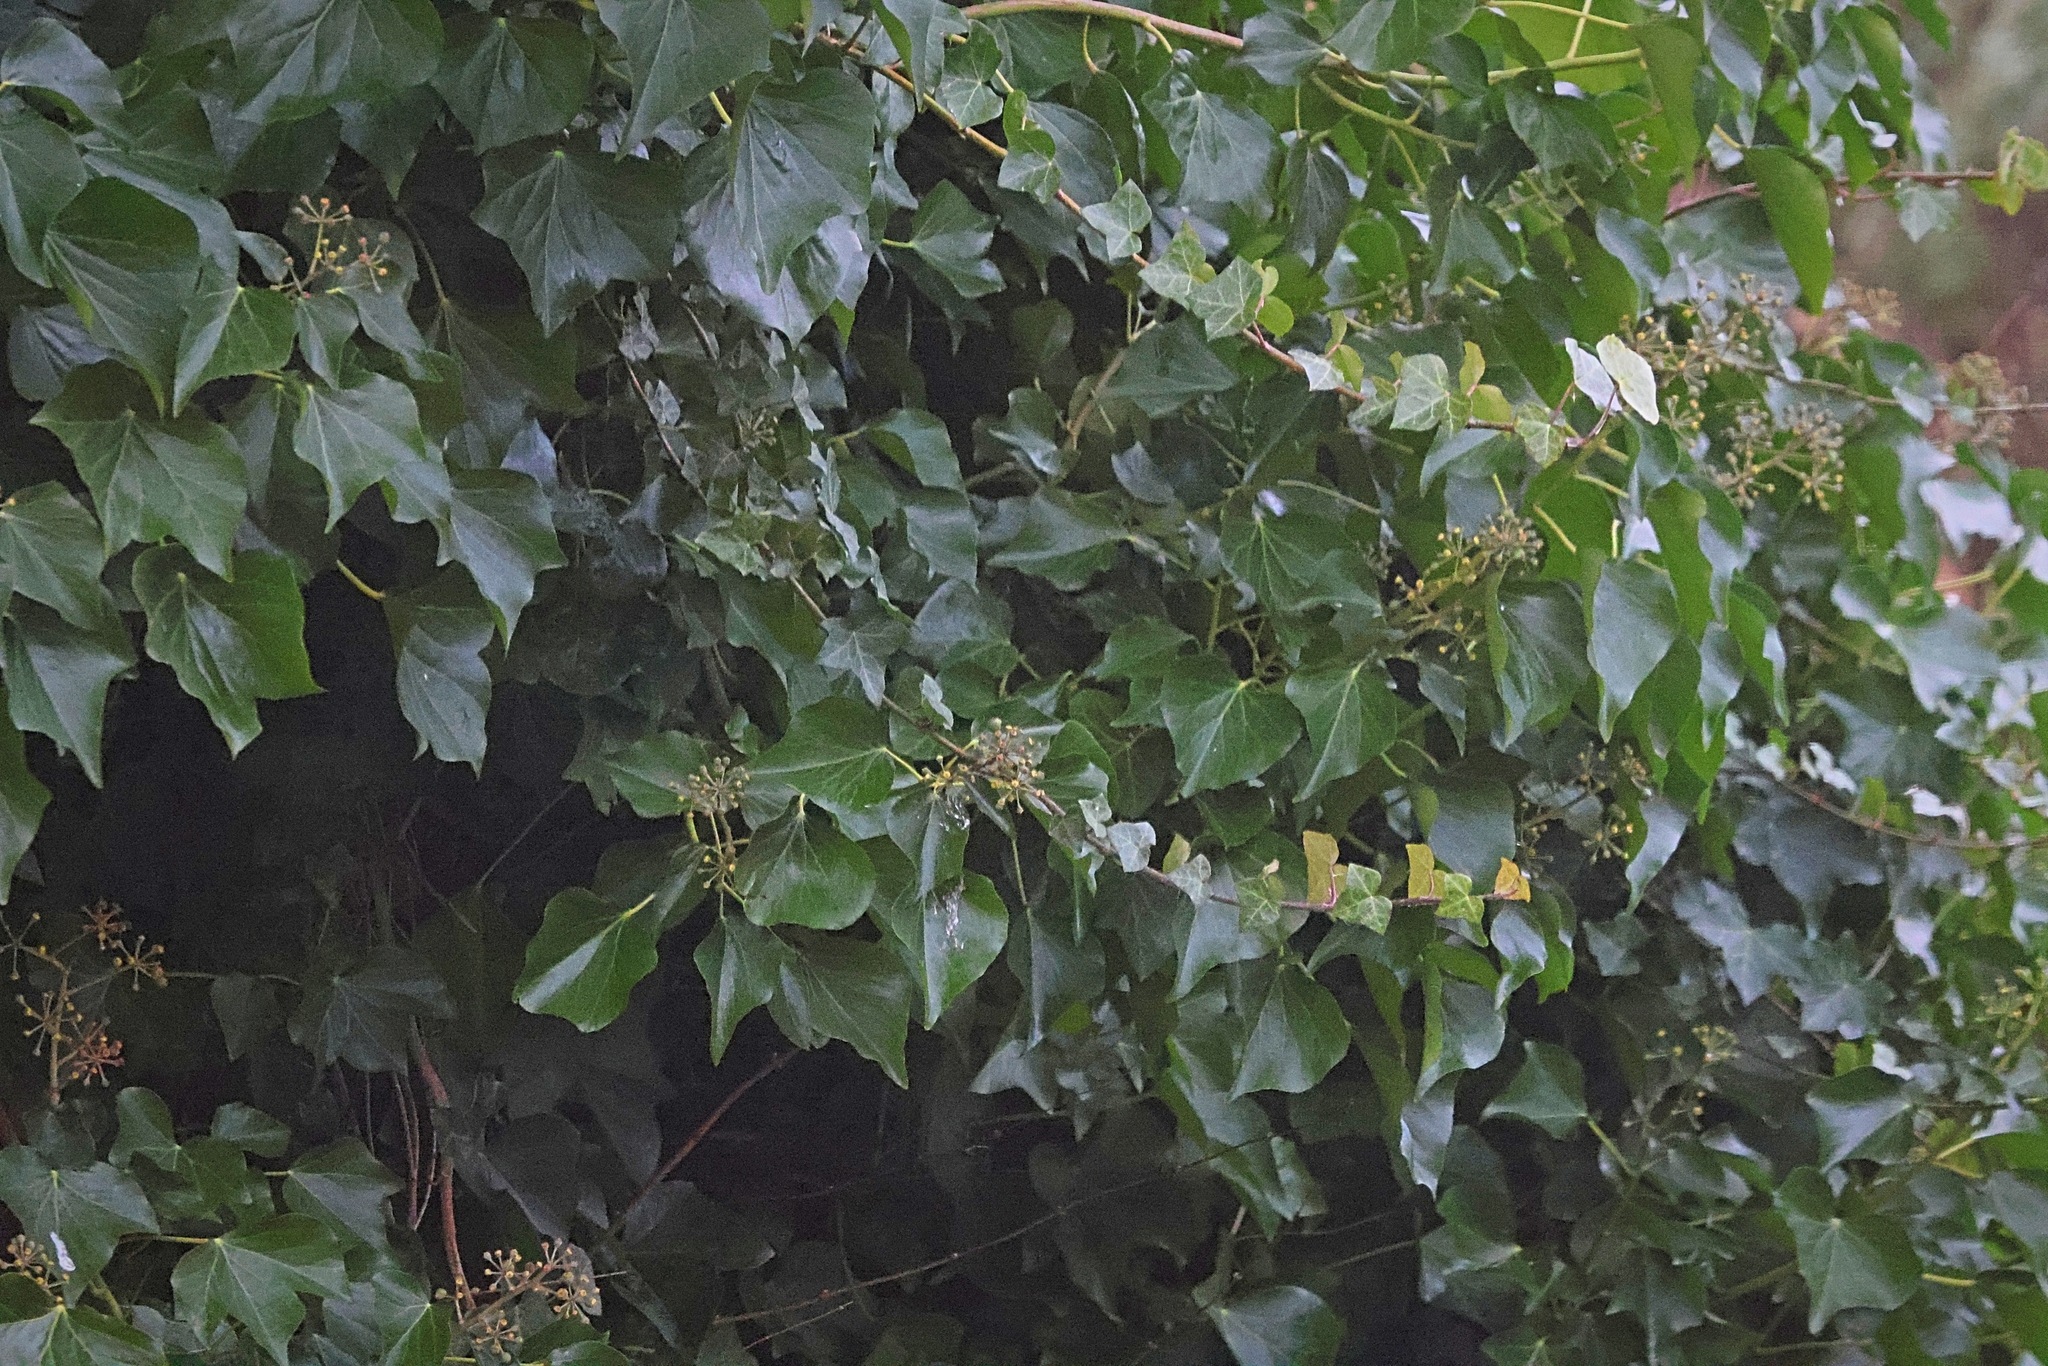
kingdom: Plantae
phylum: Tracheophyta
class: Magnoliopsida
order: Apiales
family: Araliaceae
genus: Hedera
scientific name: Hedera helix
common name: Ivy
